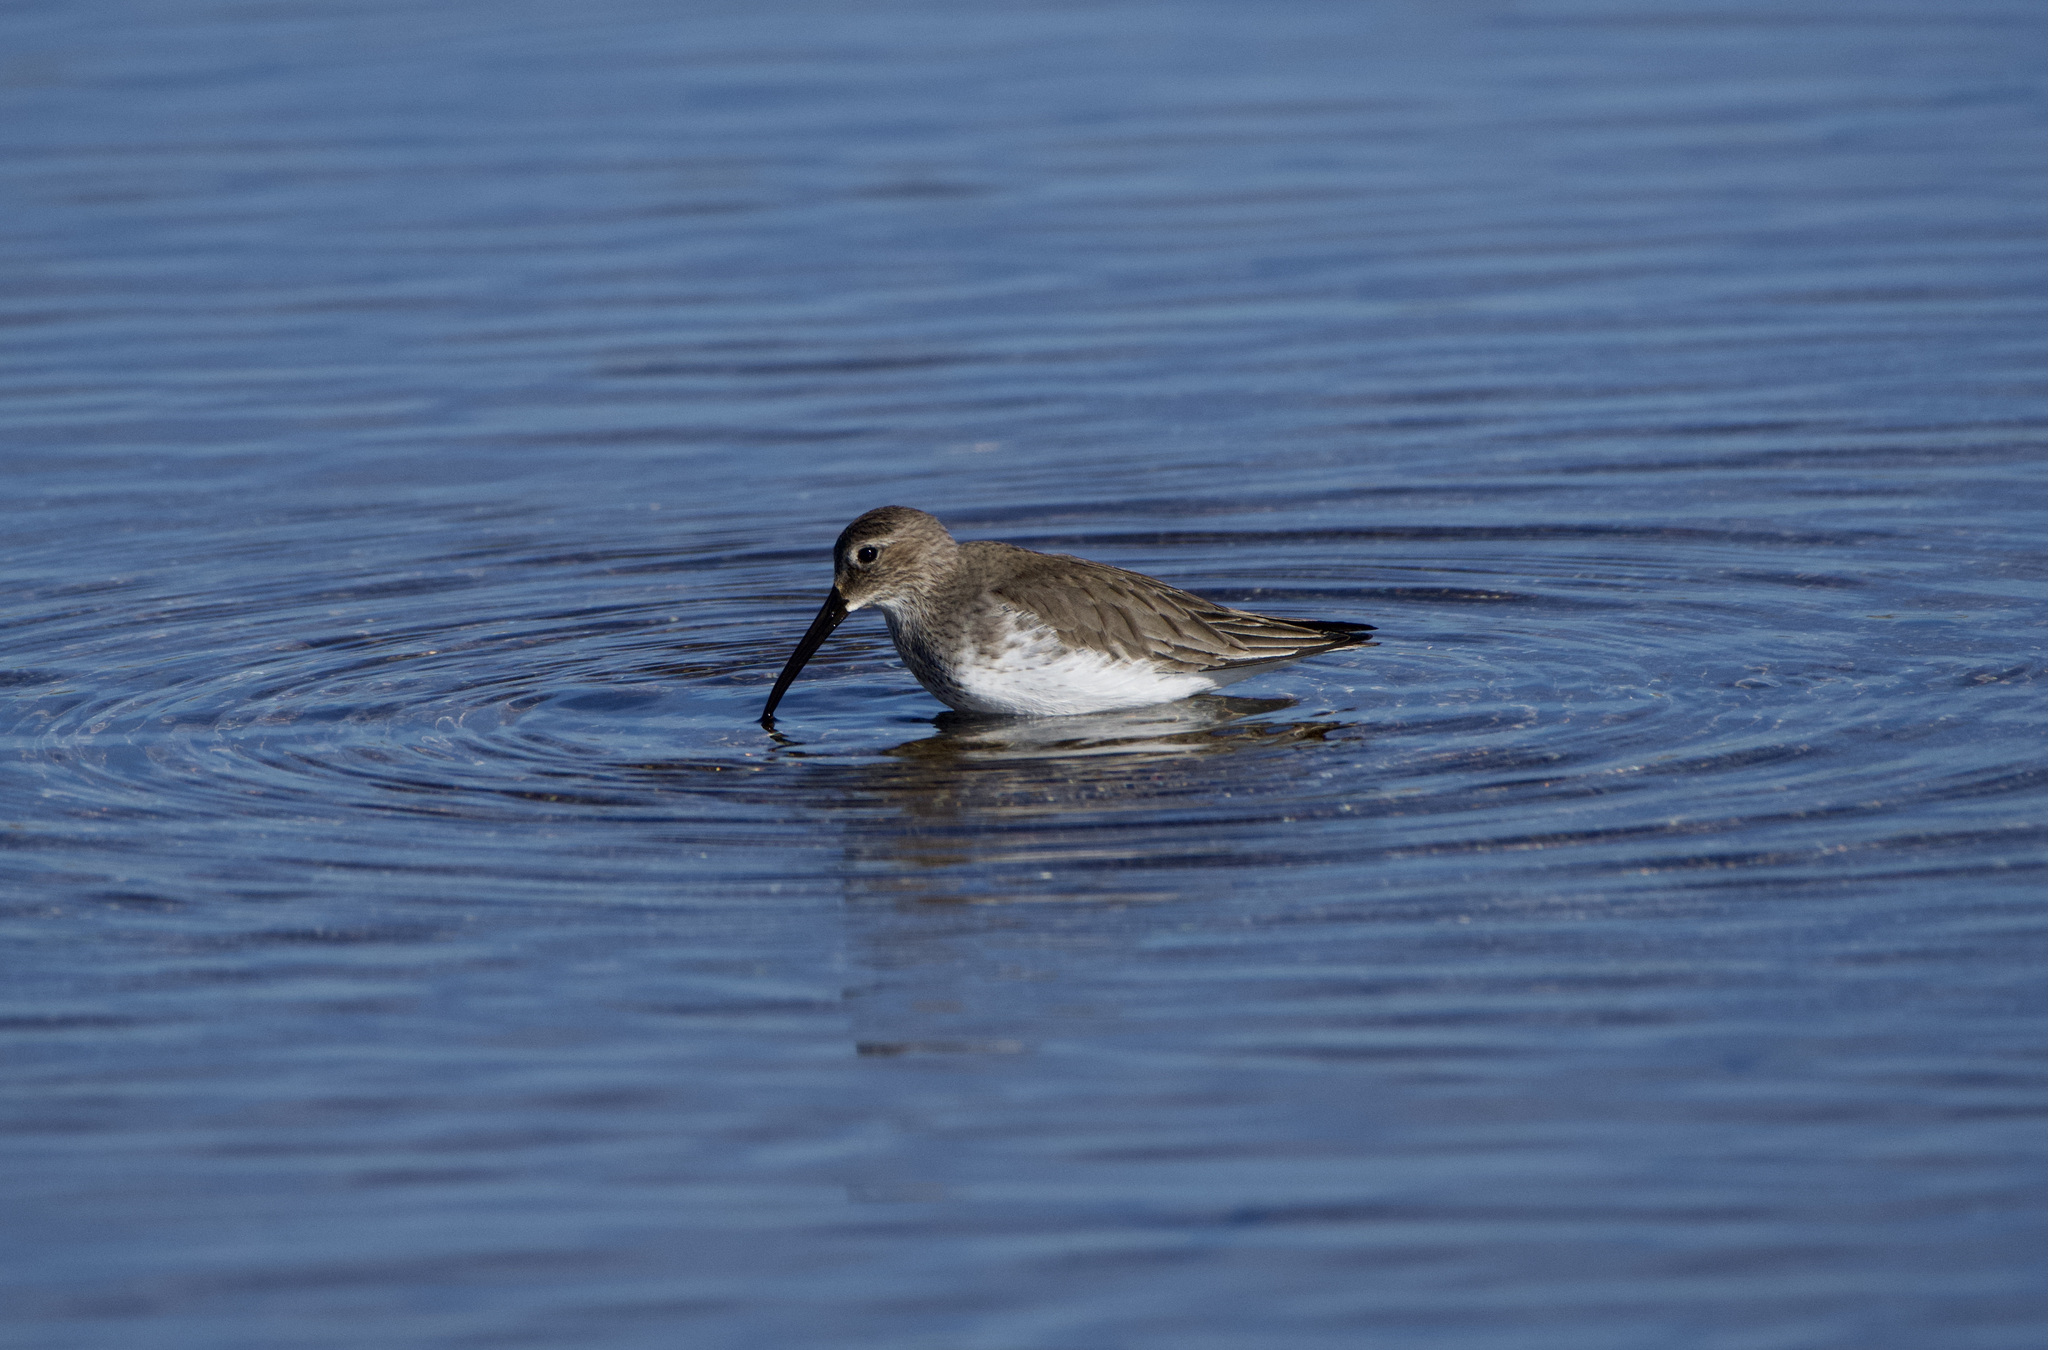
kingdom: Animalia
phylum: Chordata
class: Aves
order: Charadriiformes
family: Scolopacidae
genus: Calidris
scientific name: Calidris alpina
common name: Dunlin
